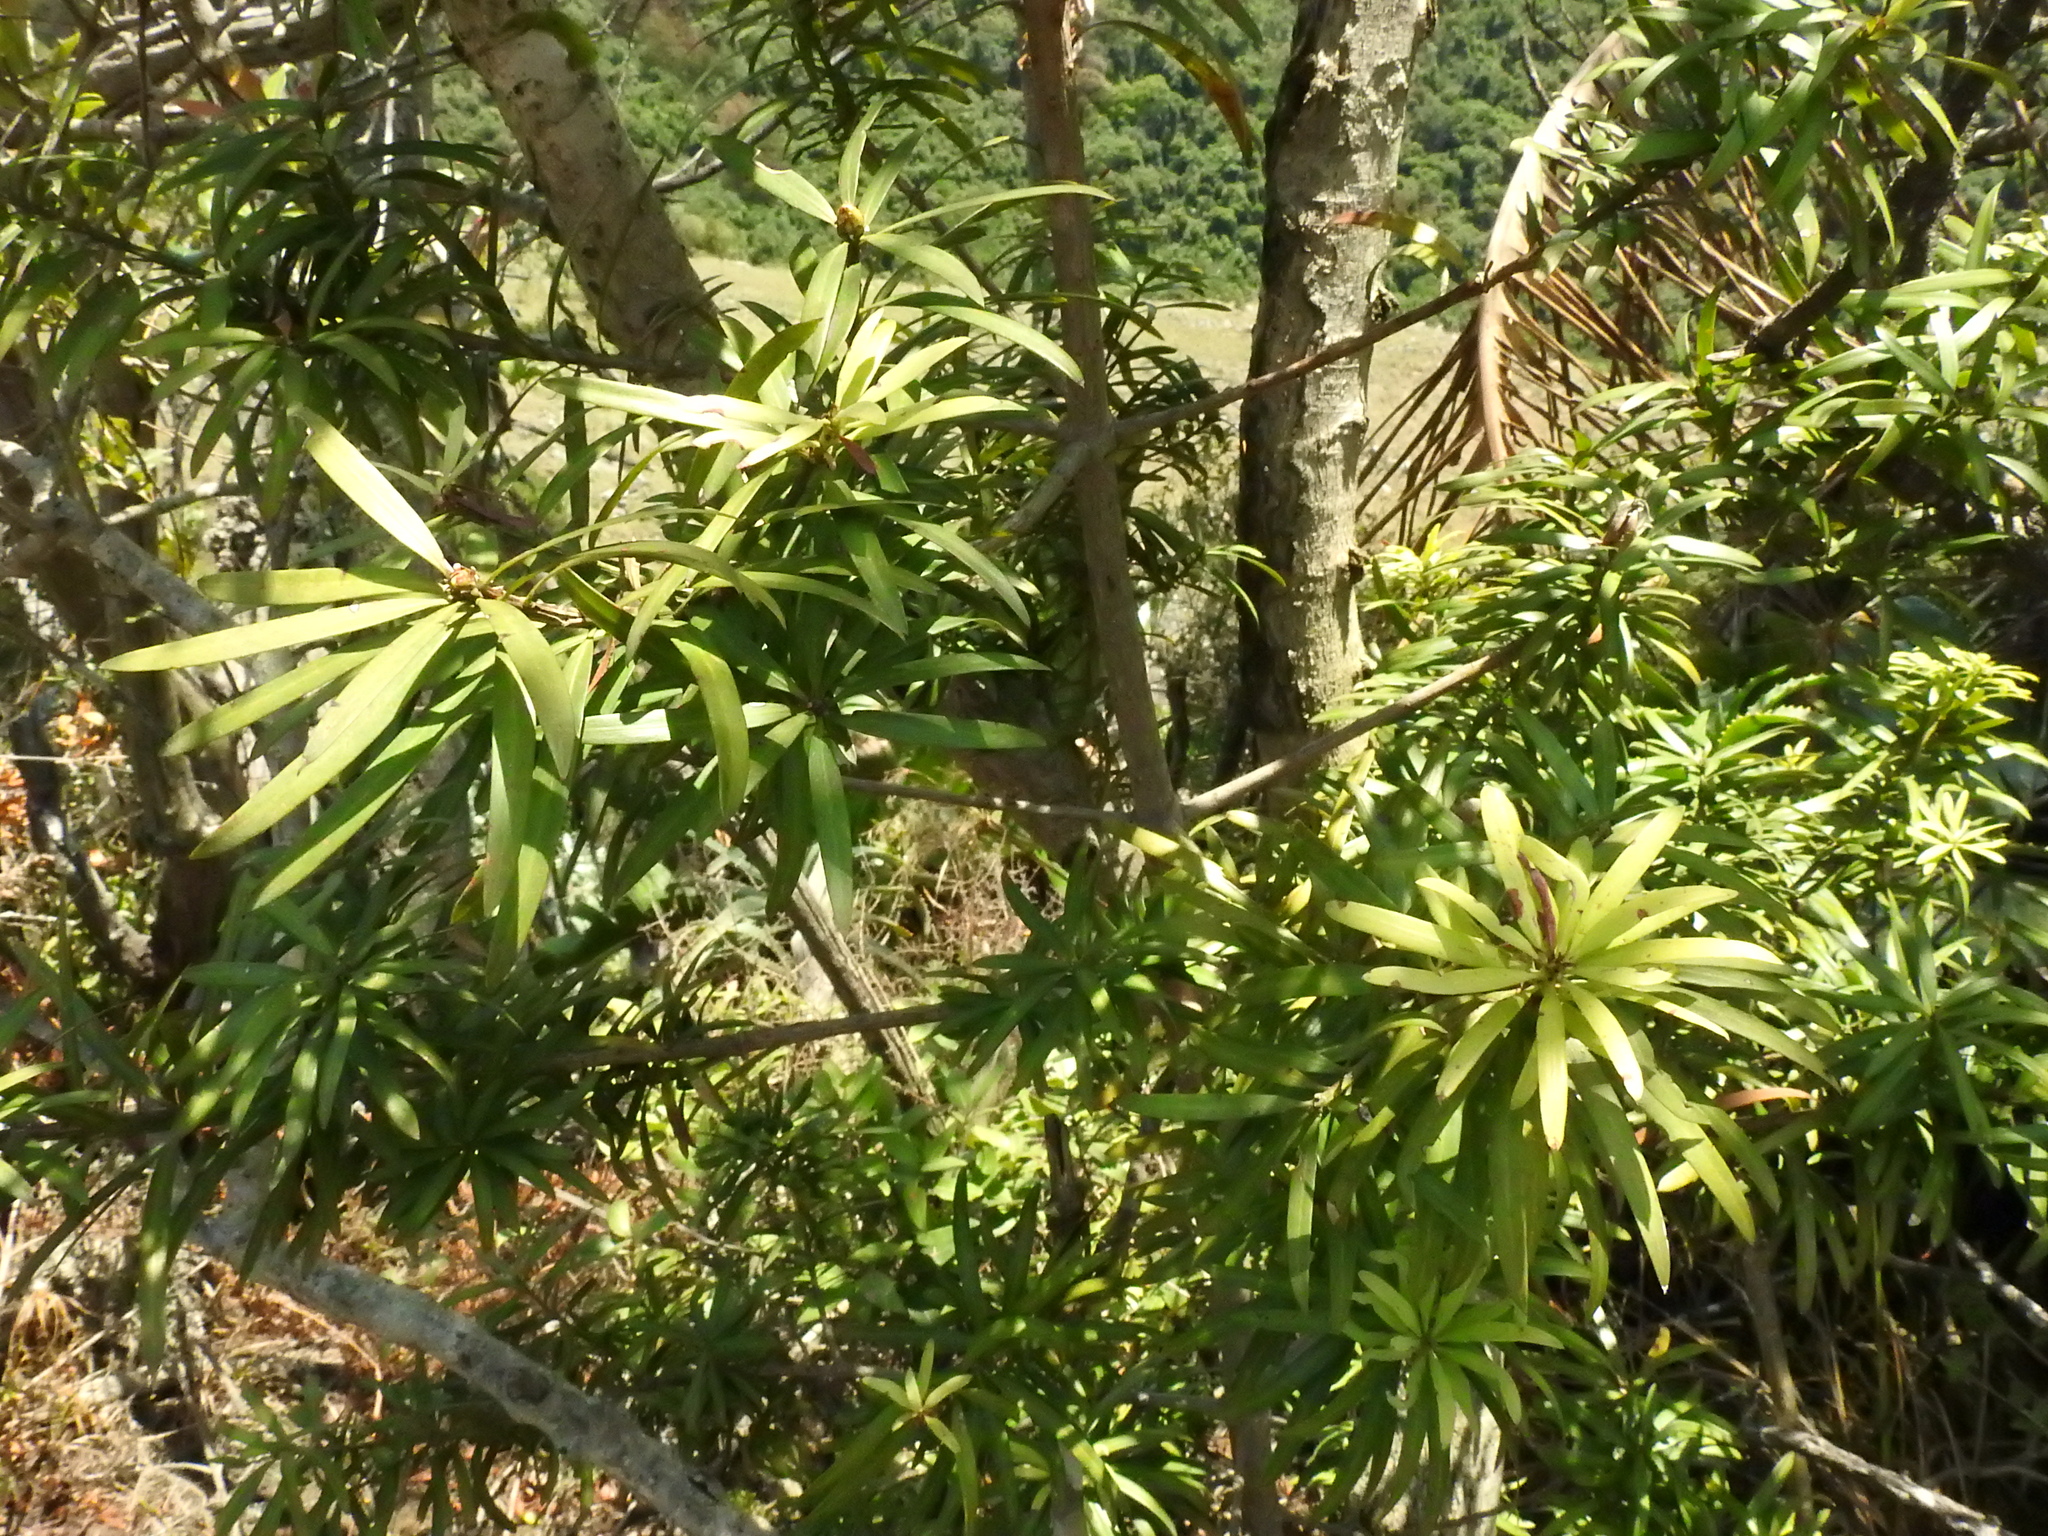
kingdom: Plantae
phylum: Tracheophyta
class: Pinopsida
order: Pinales
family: Podocarpaceae
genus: Podocarpus
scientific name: Podocarpus latifolius
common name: True yellowwood
